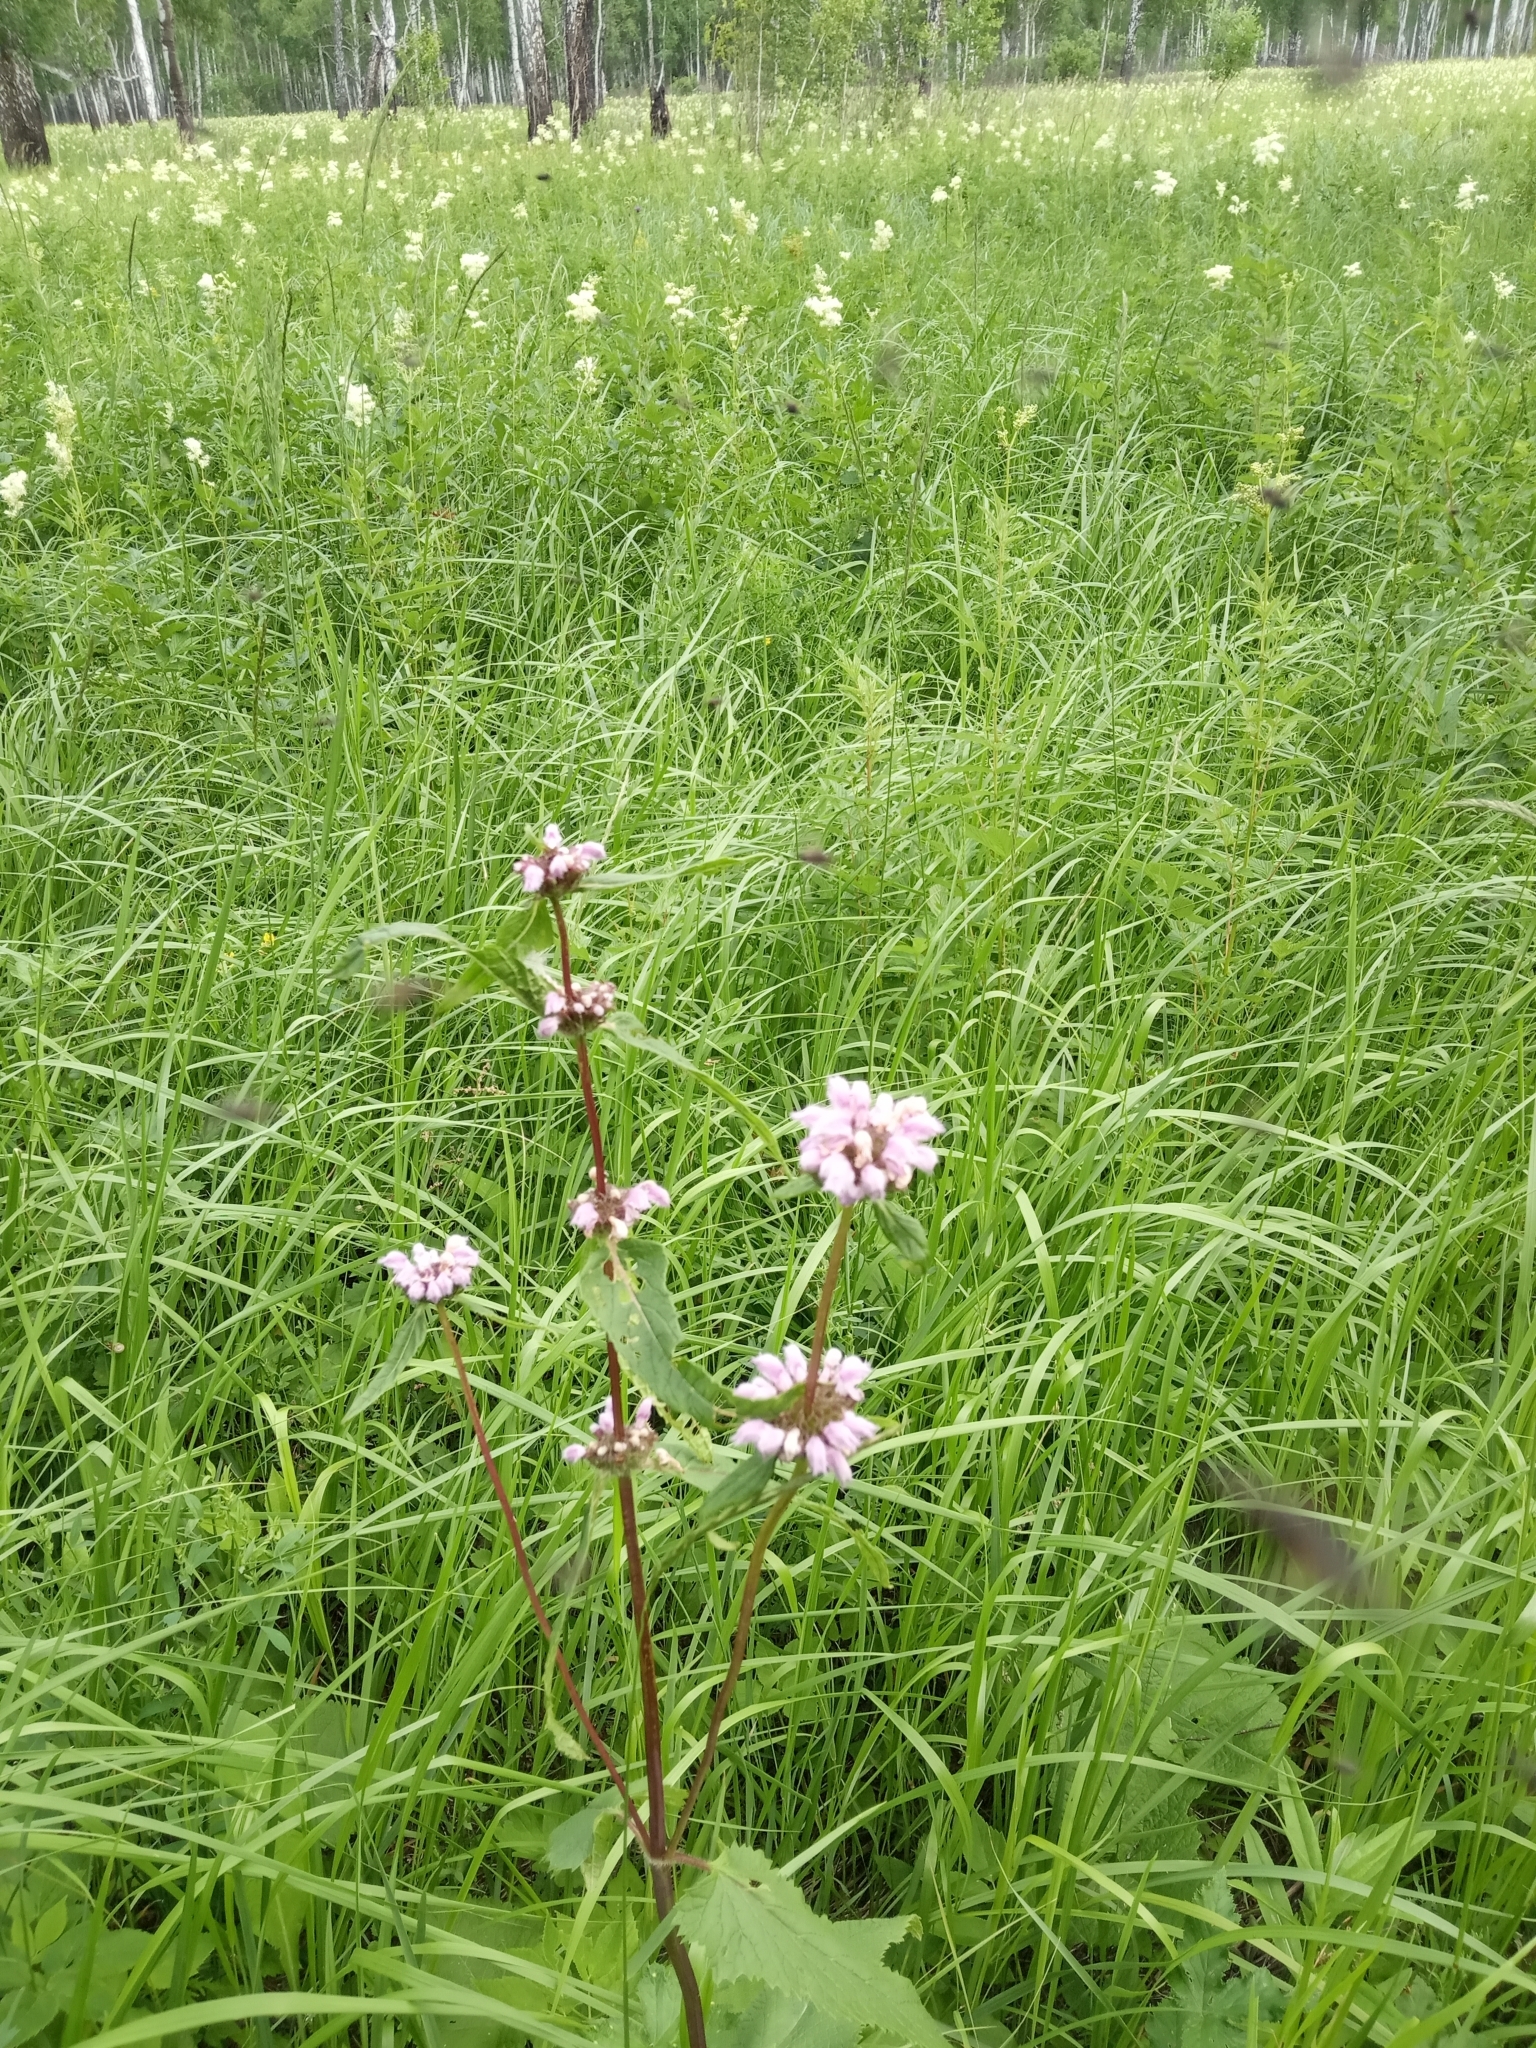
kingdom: Plantae
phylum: Tracheophyta
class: Magnoliopsida
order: Lamiales
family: Lamiaceae
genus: Phlomoides
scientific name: Phlomoides tuberosa
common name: Tuberous jerusalem sage
